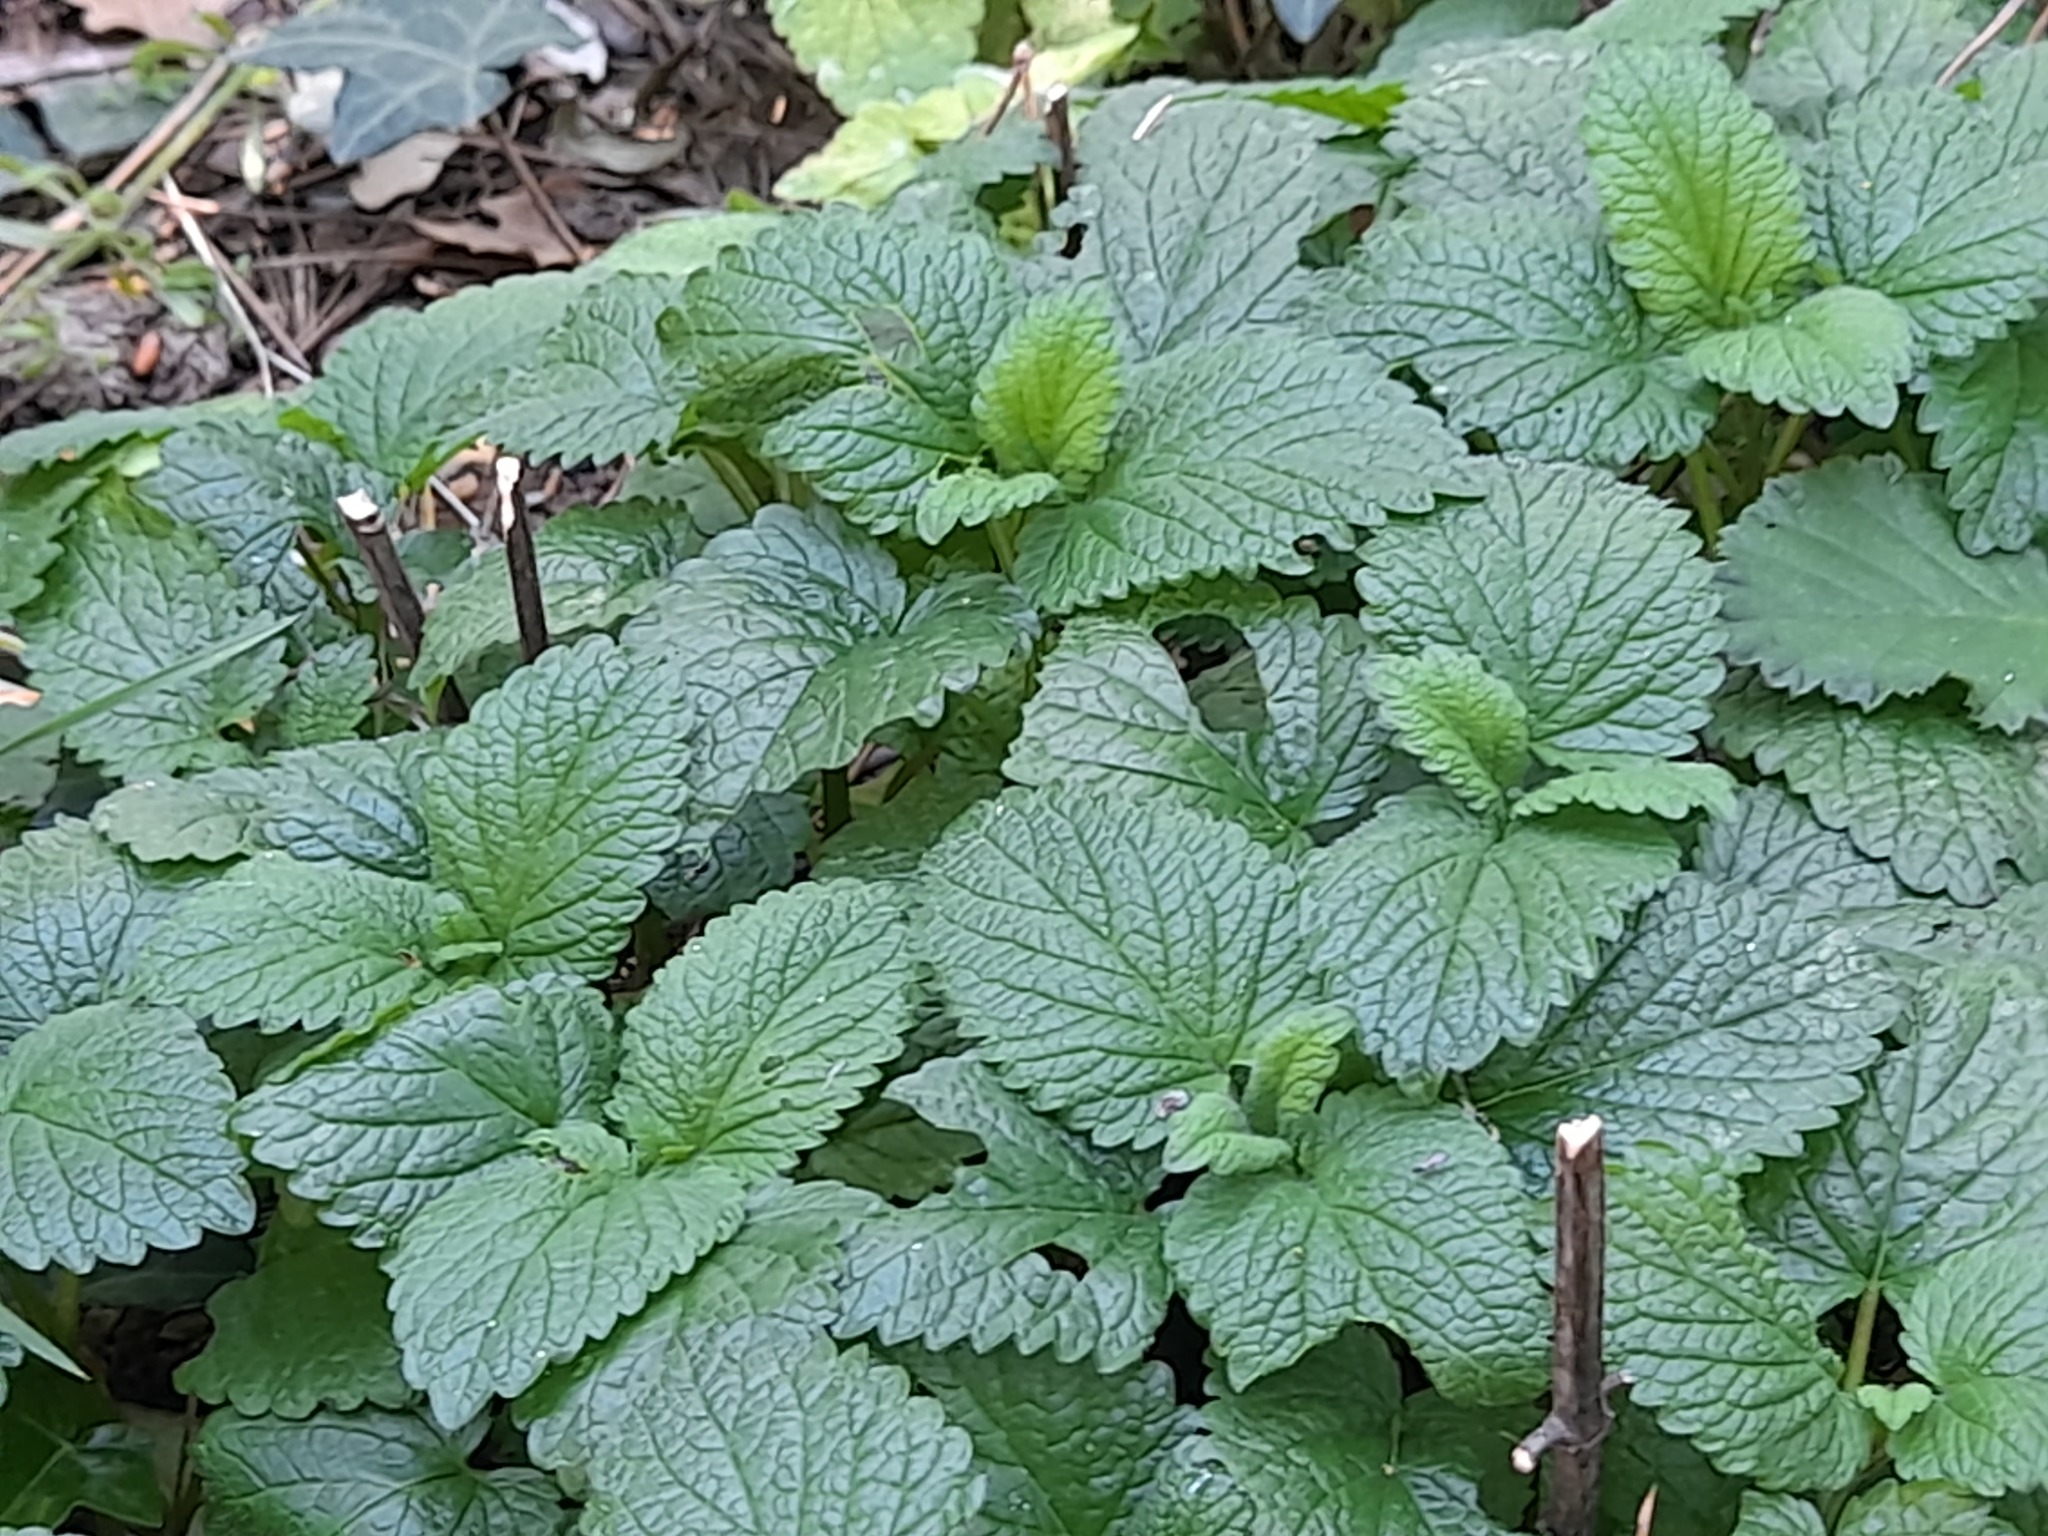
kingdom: Plantae
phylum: Tracheophyta
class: Magnoliopsida
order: Lamiales
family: Lamiaceae
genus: Melissa
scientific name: Melissa officinalis
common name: Balm
